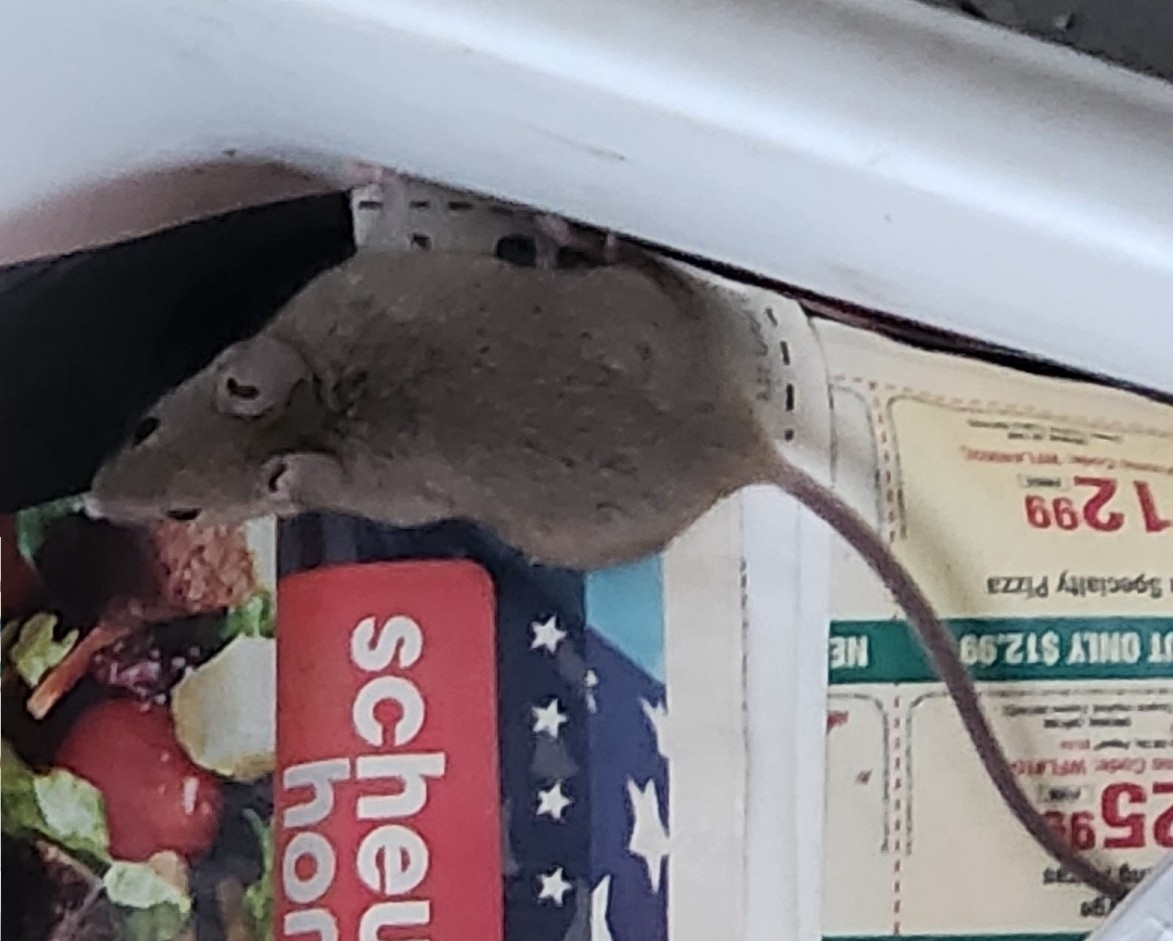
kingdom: Animalia
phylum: Chordata
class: Mammalia
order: Rodentia
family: Muridae
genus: Mus
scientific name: Mus musculus
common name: House mouse
